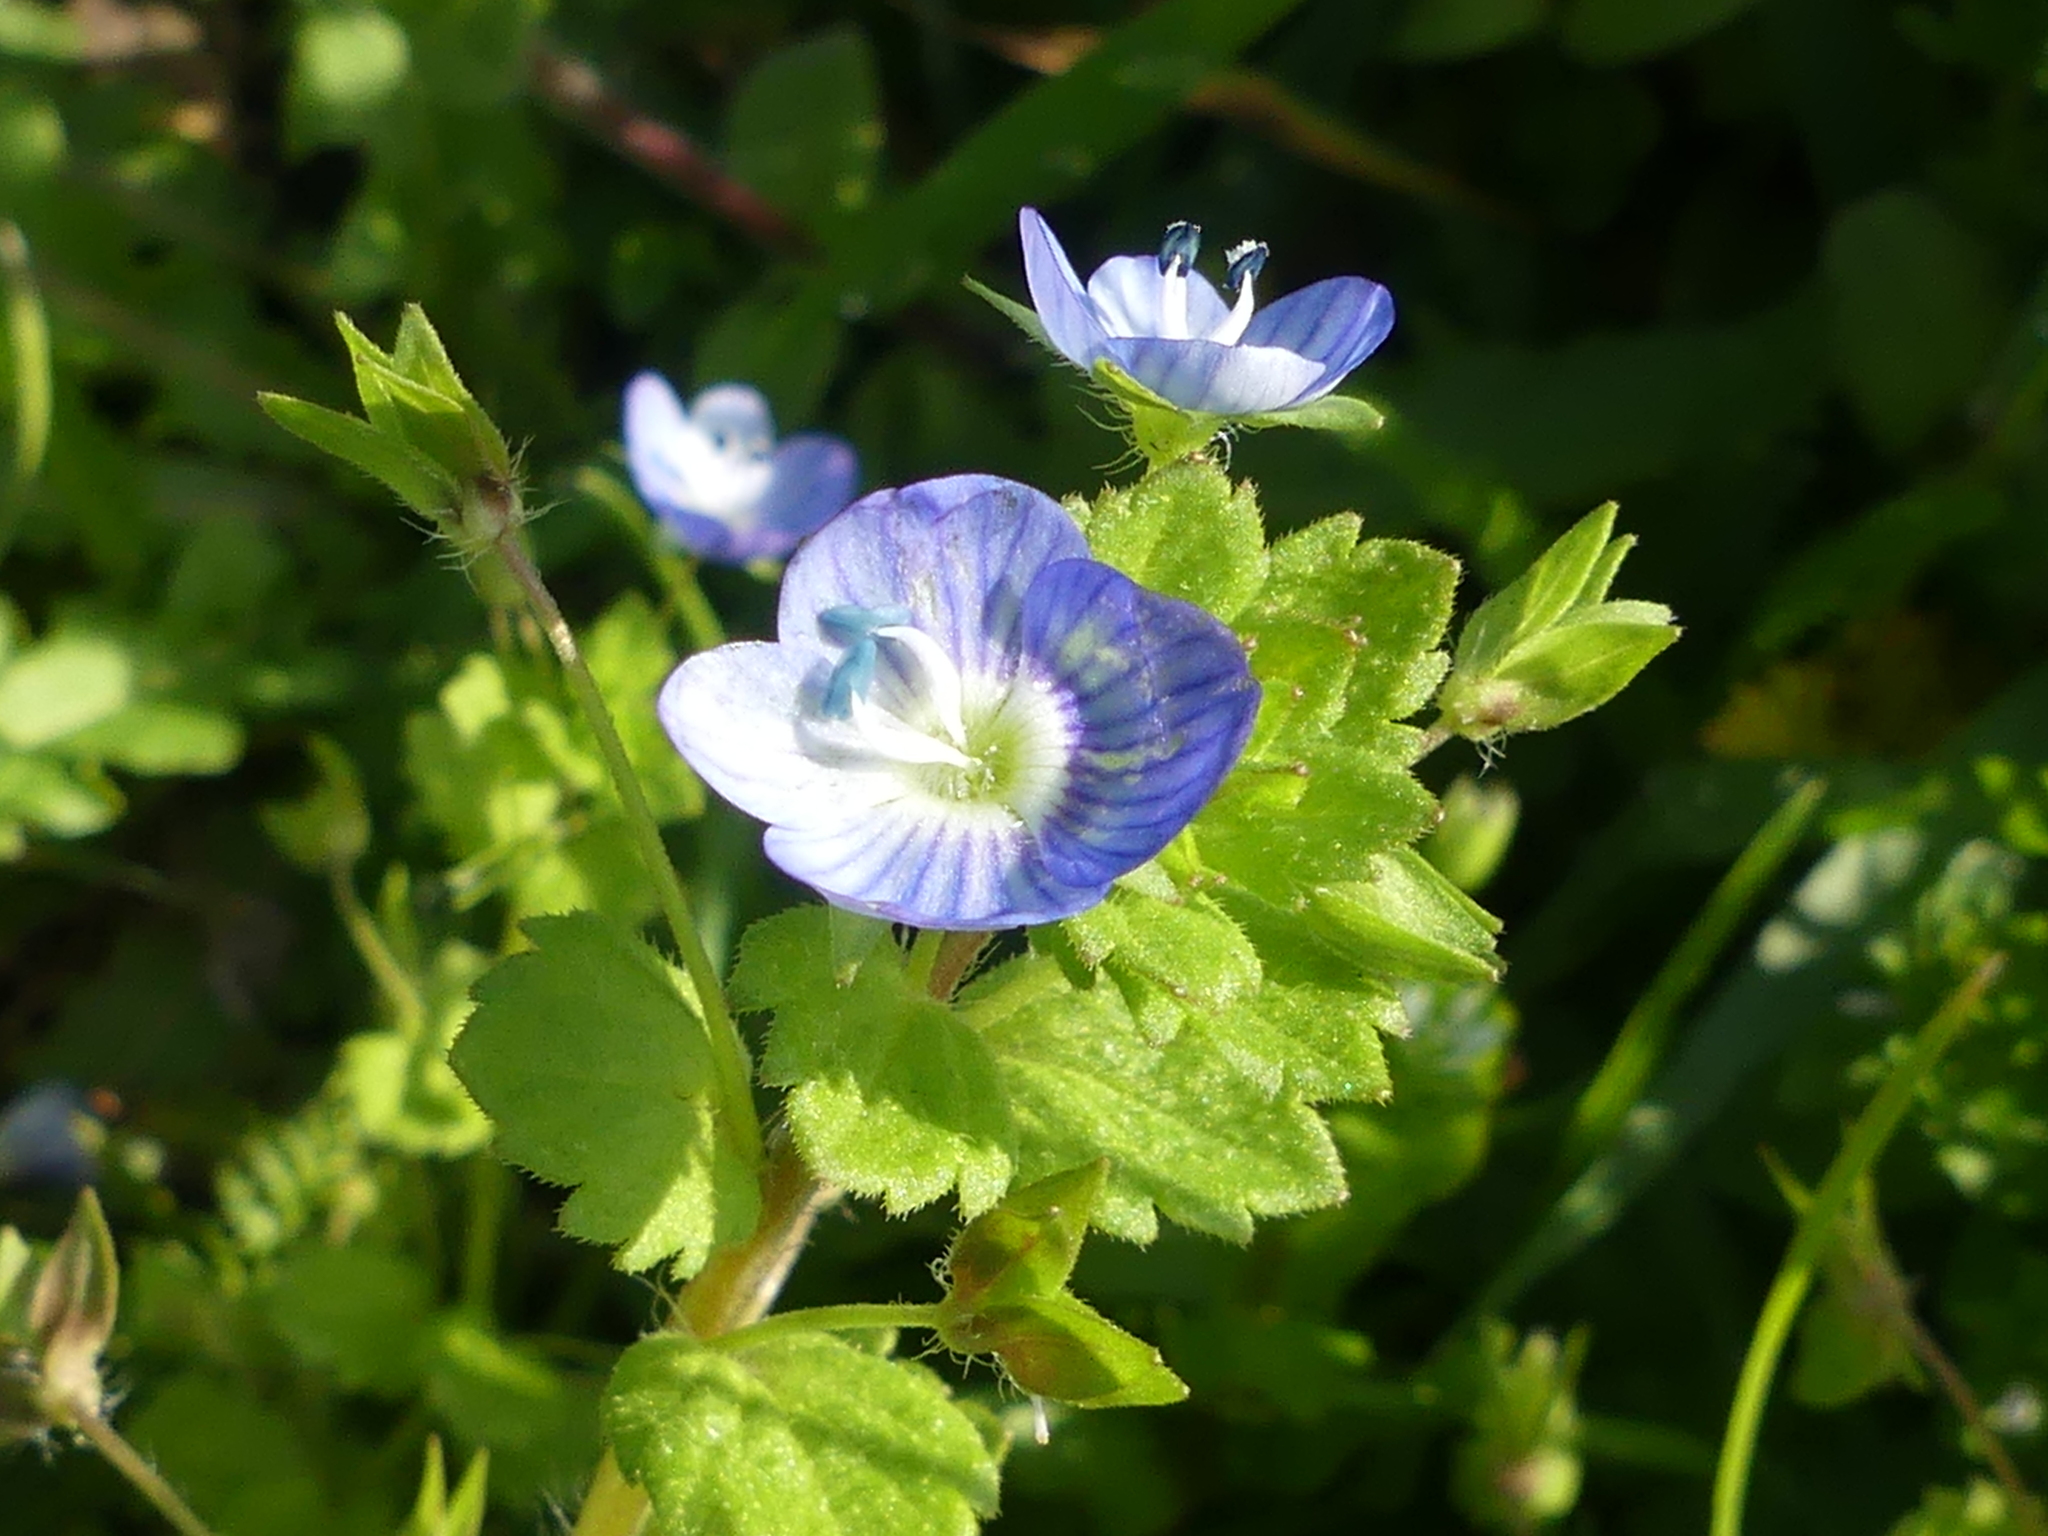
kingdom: Plantae
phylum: Tracheophyta
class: Magnoliopsida
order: Lamiales
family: Plantaginaceae
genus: Veronica
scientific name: Veronica persica
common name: Common field-speedwell
